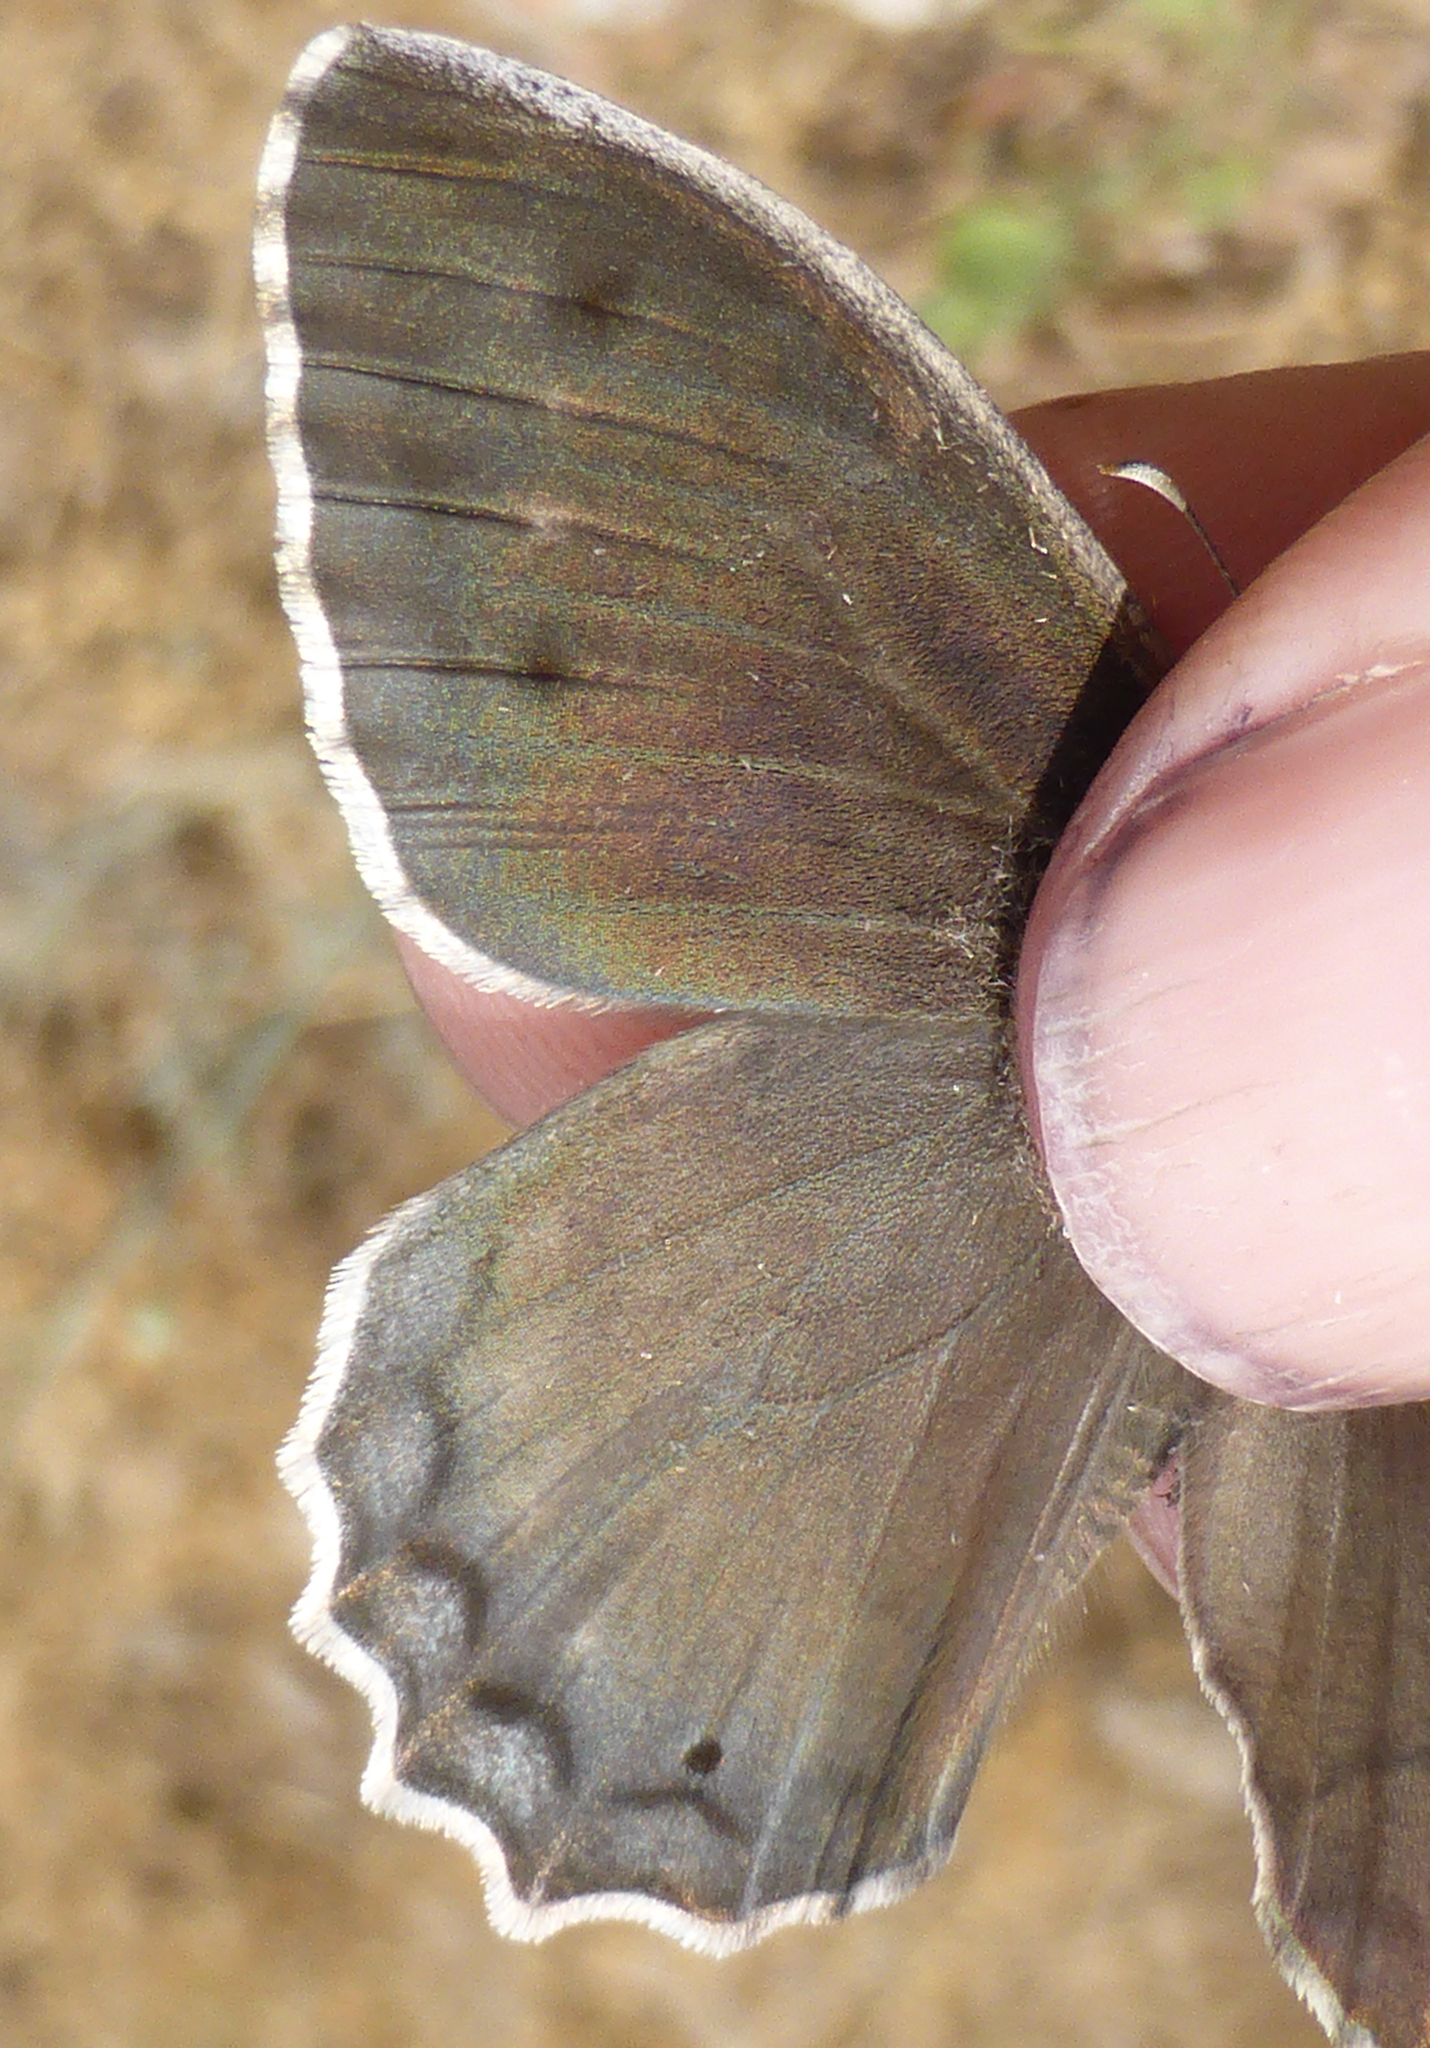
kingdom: Animalia
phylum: Arthropoda
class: Insecta
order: Lepidoptera
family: Nymphalidae
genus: Hipparchia
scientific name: Hipparchia fatua
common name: Freyer's grayling
